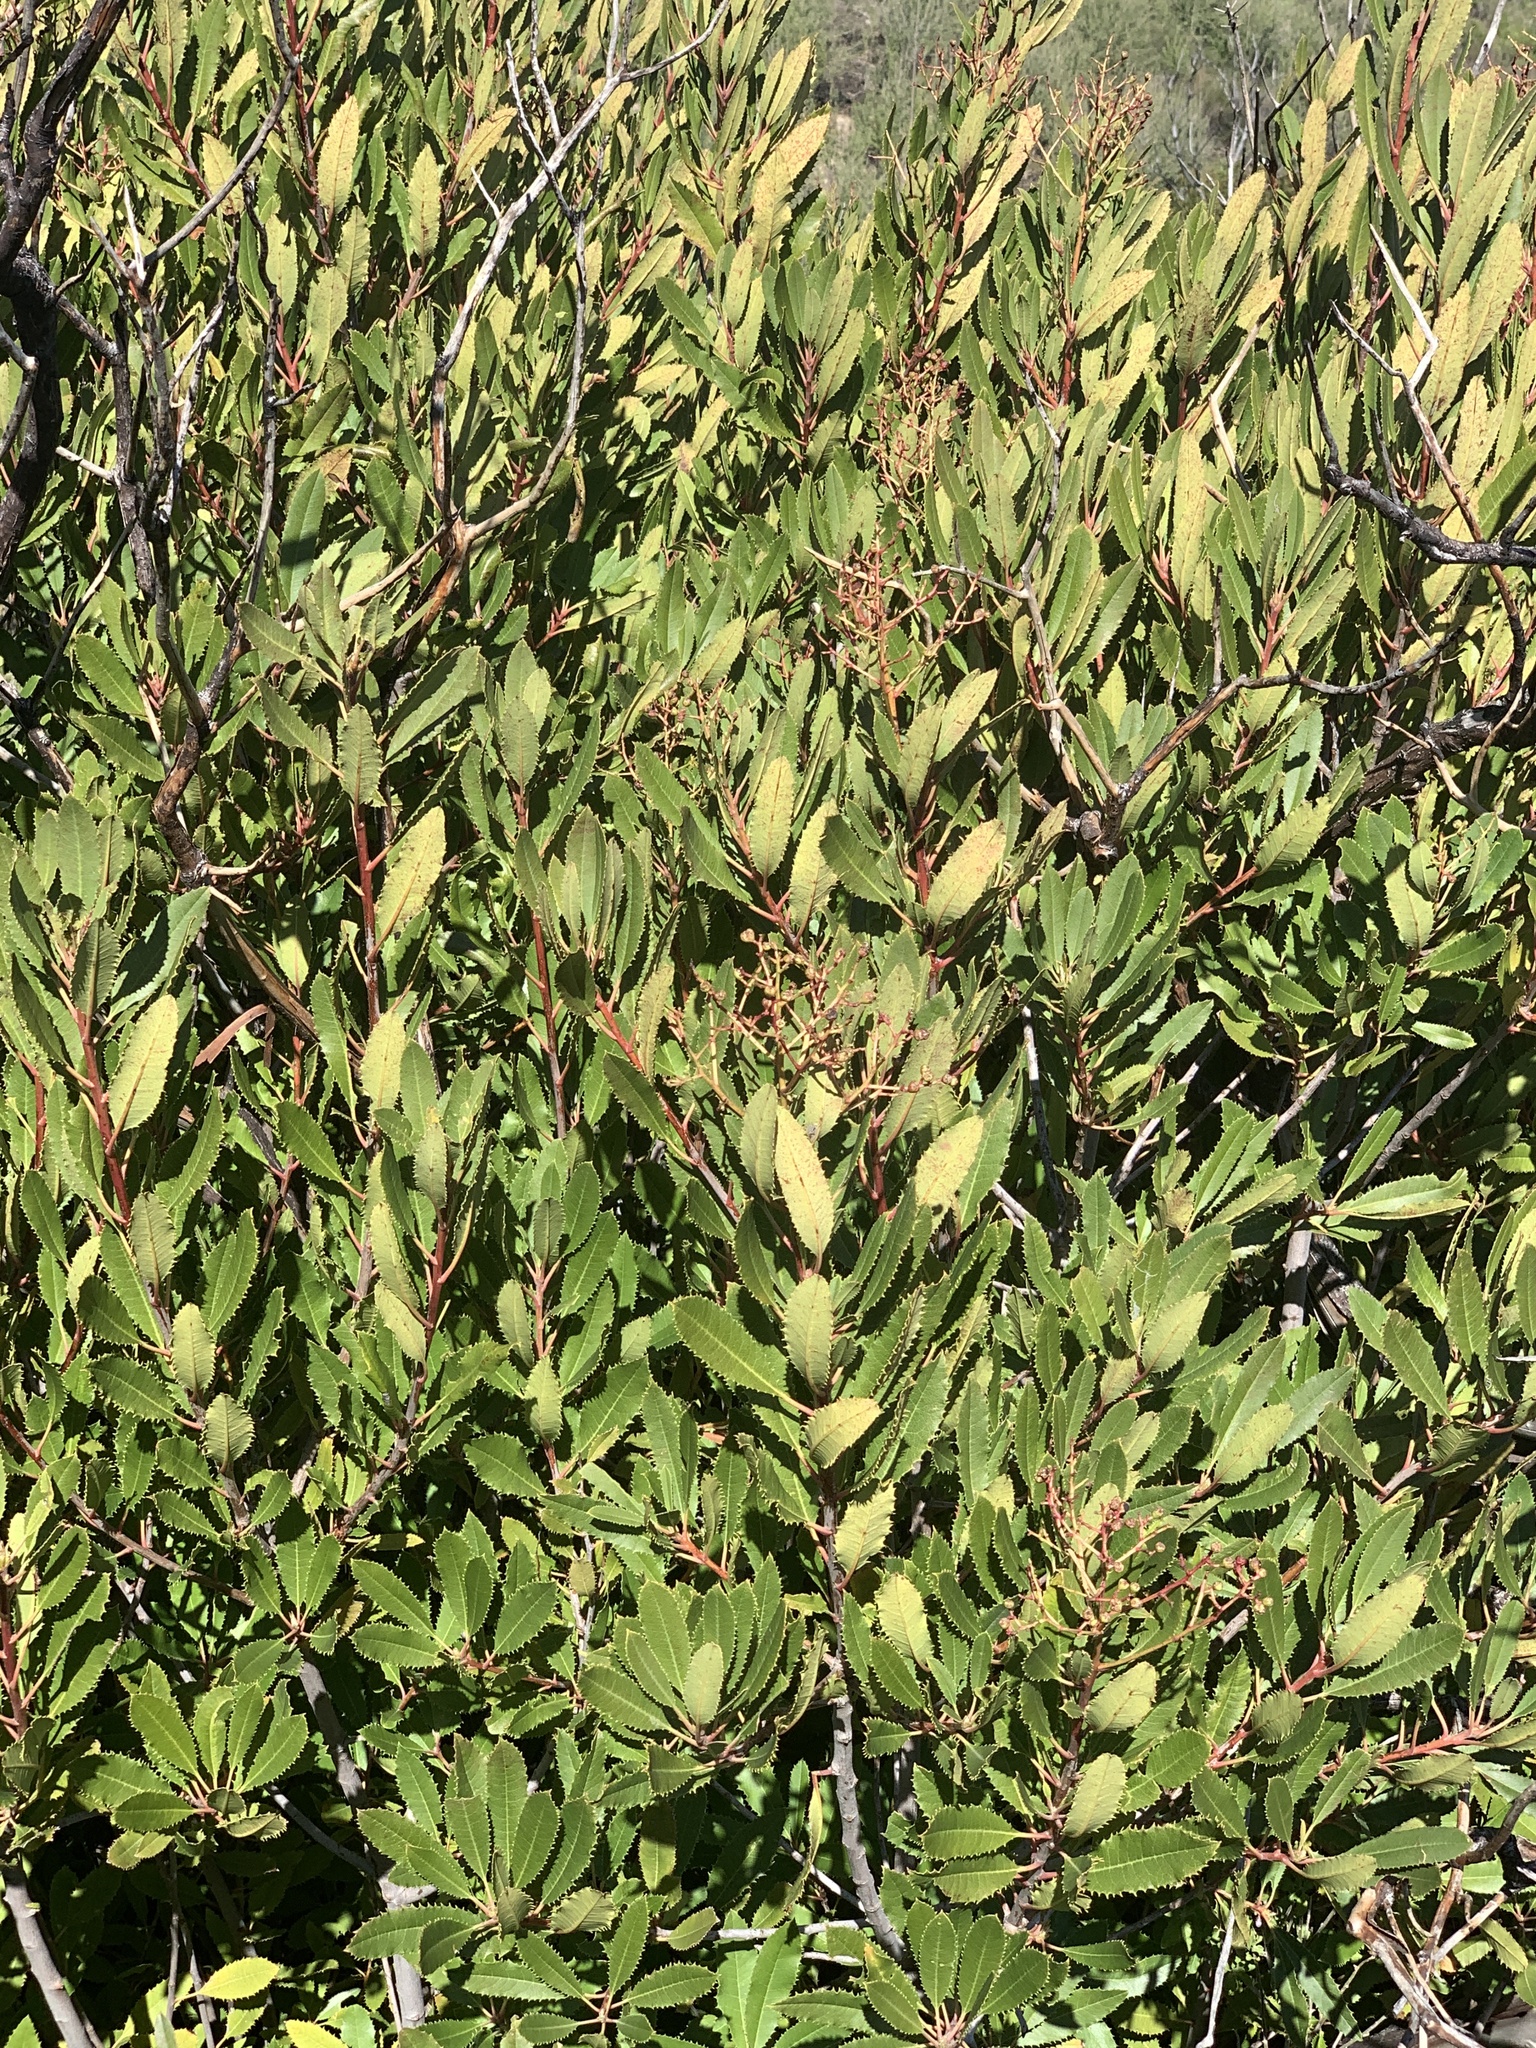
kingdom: Plantae
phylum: Tracheophyta
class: Magnoliopsida
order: Rosales
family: Rosaceae
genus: Heteromeles
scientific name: Heteromeles arbutifolia
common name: California-holly
